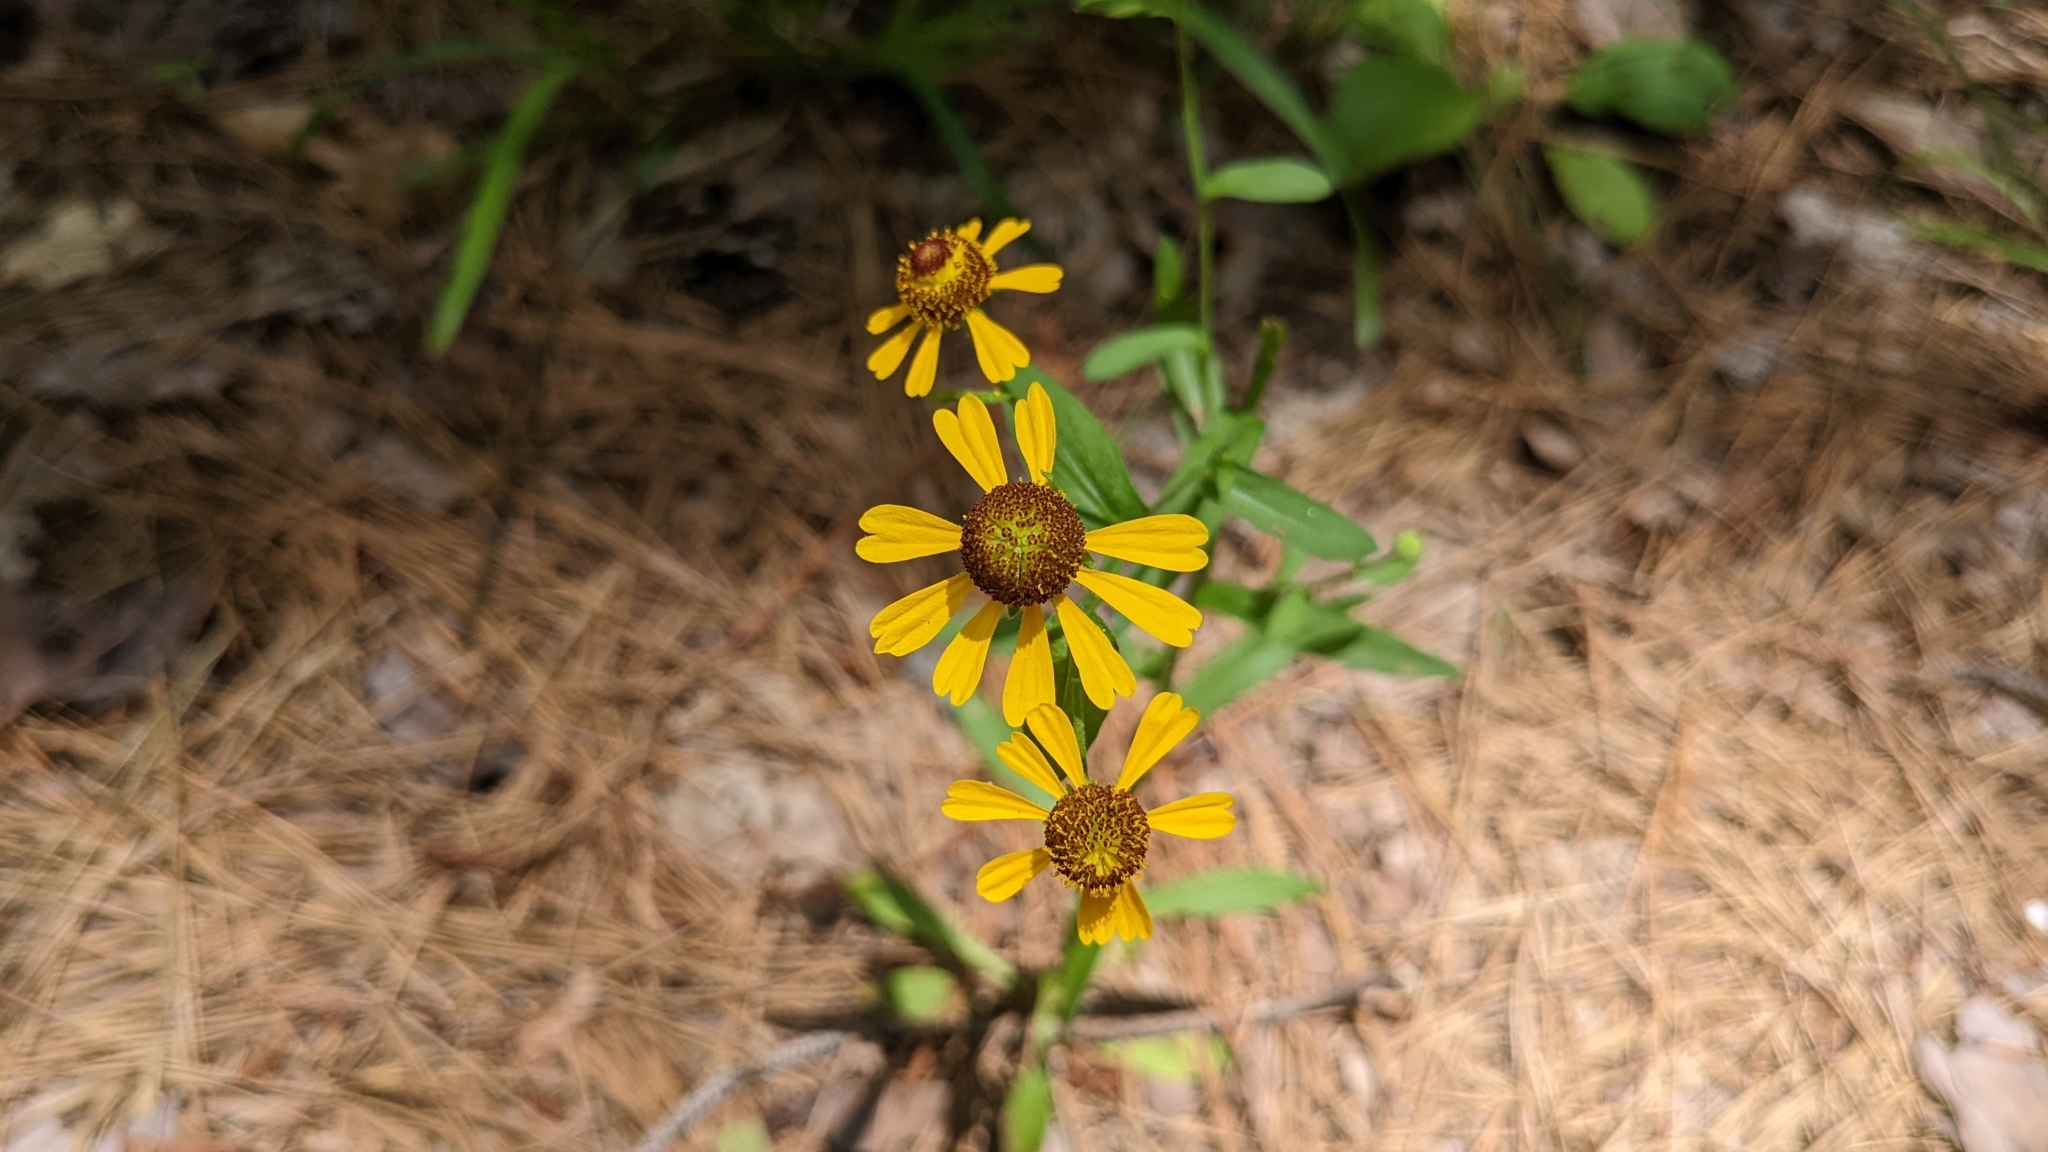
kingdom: Plantae
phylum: Tracheophyta
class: Magnoliopsida
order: Asterales
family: Asteraceae
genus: Helenium
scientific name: Helenium flexuosum
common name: Naked-flowered sneezeweed
